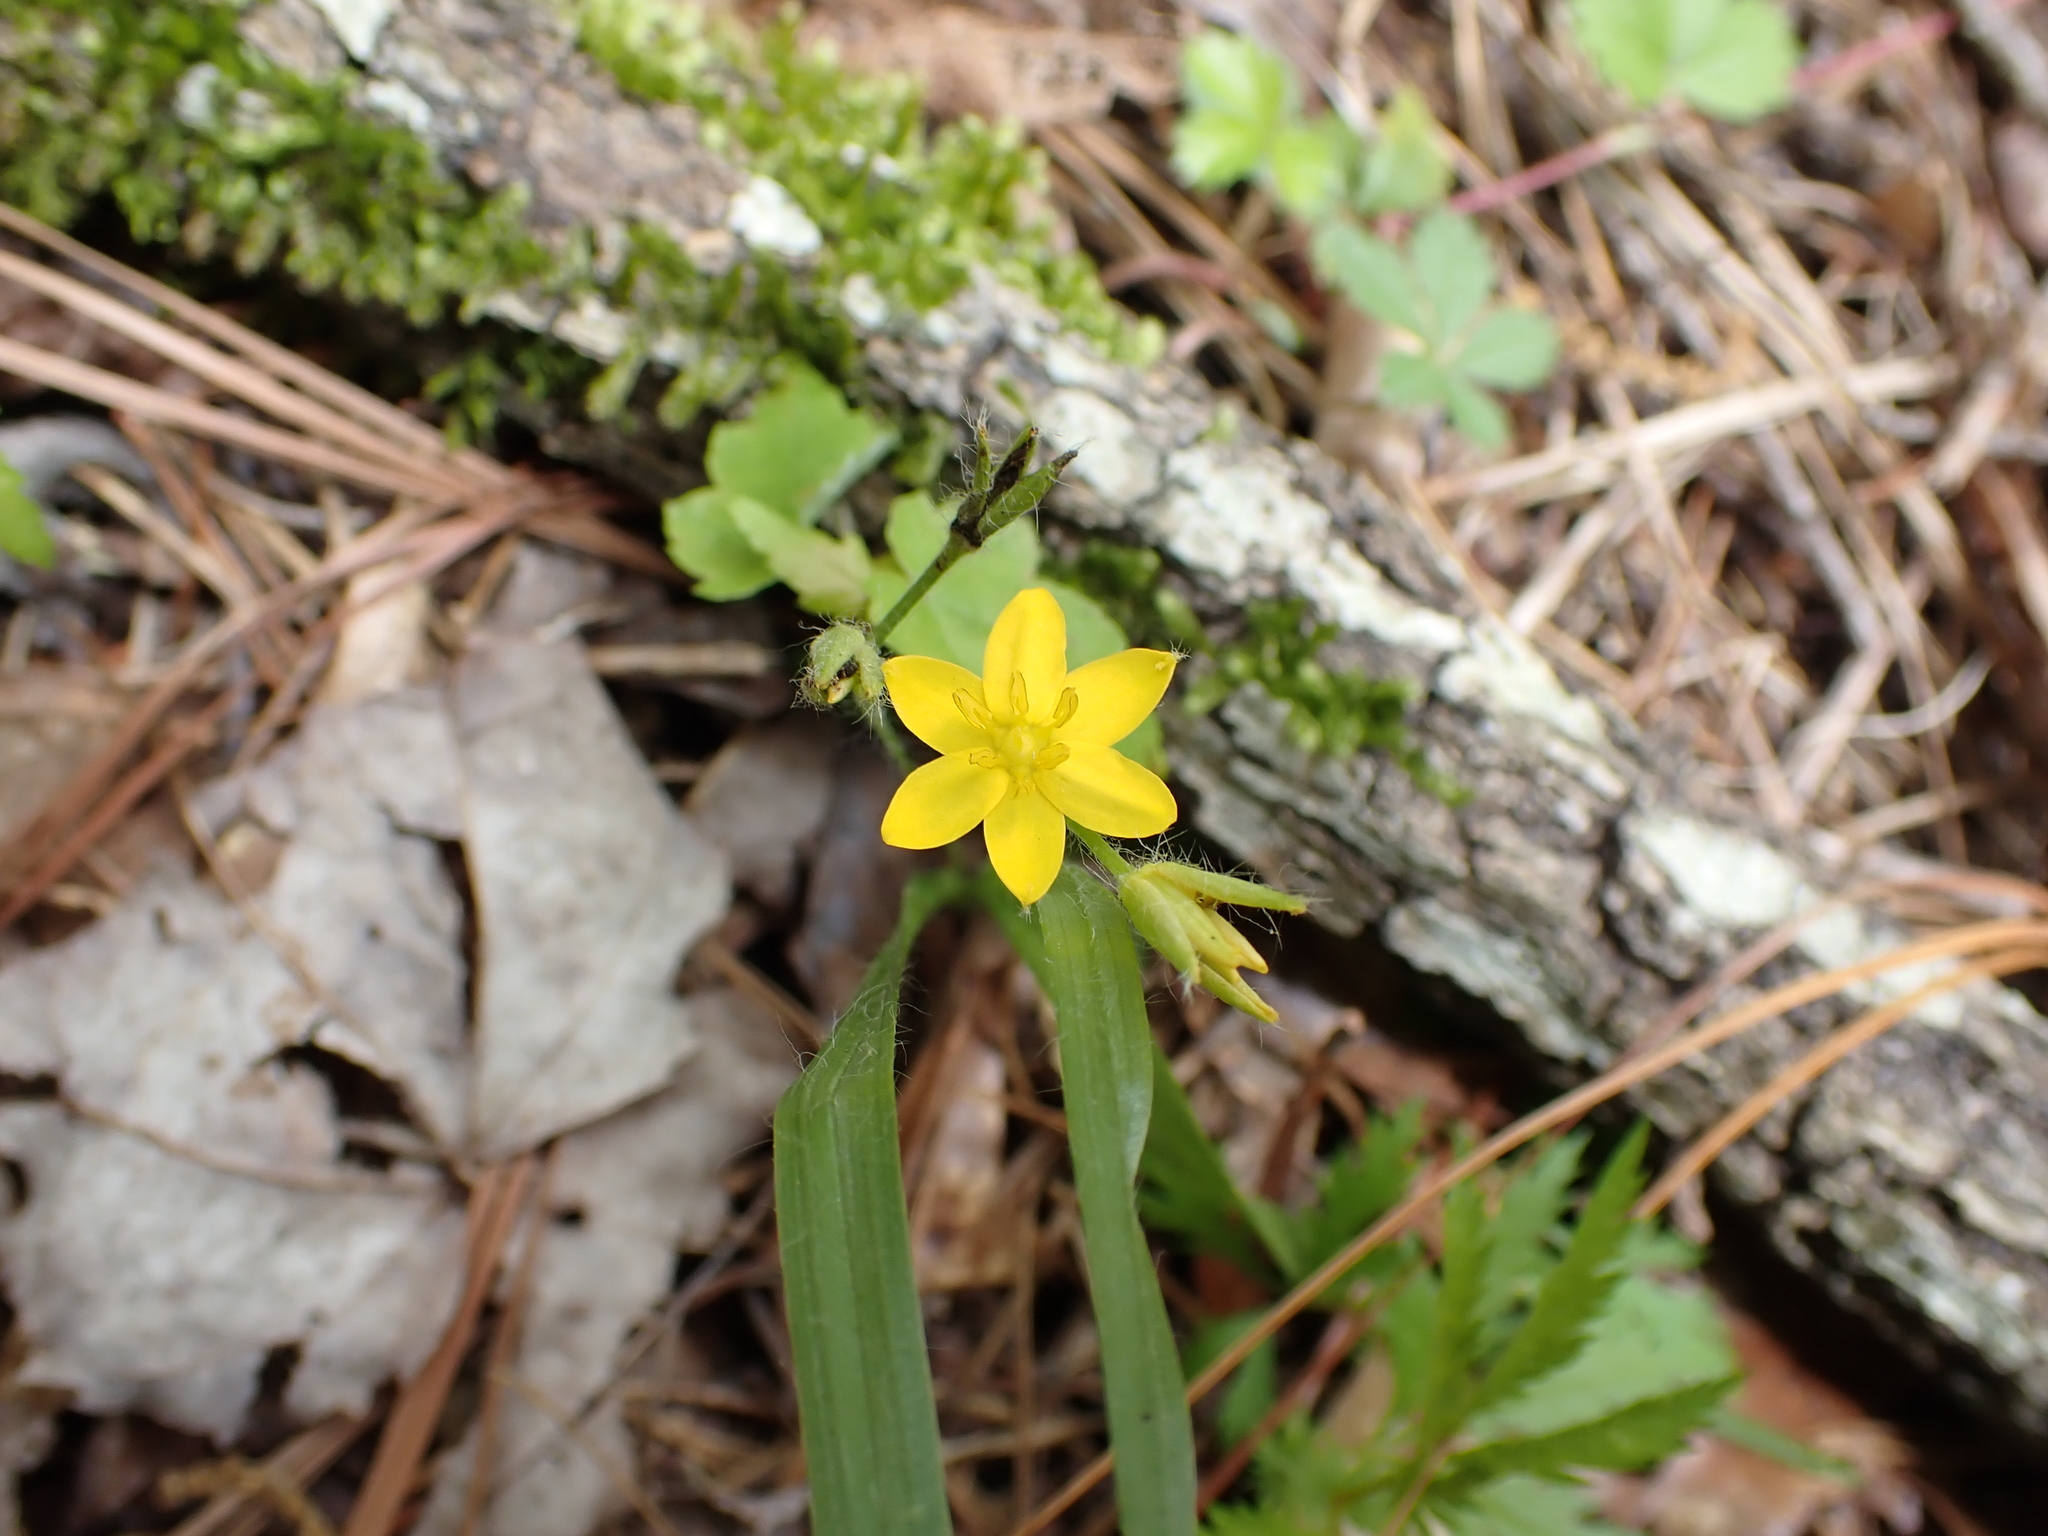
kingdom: Plantae
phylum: Tracheophyta
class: Liliopsida
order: Asparagales
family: Hypoxidaceae
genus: Hypoxis
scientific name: Hypoxis hirsuta
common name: Common goldstar
